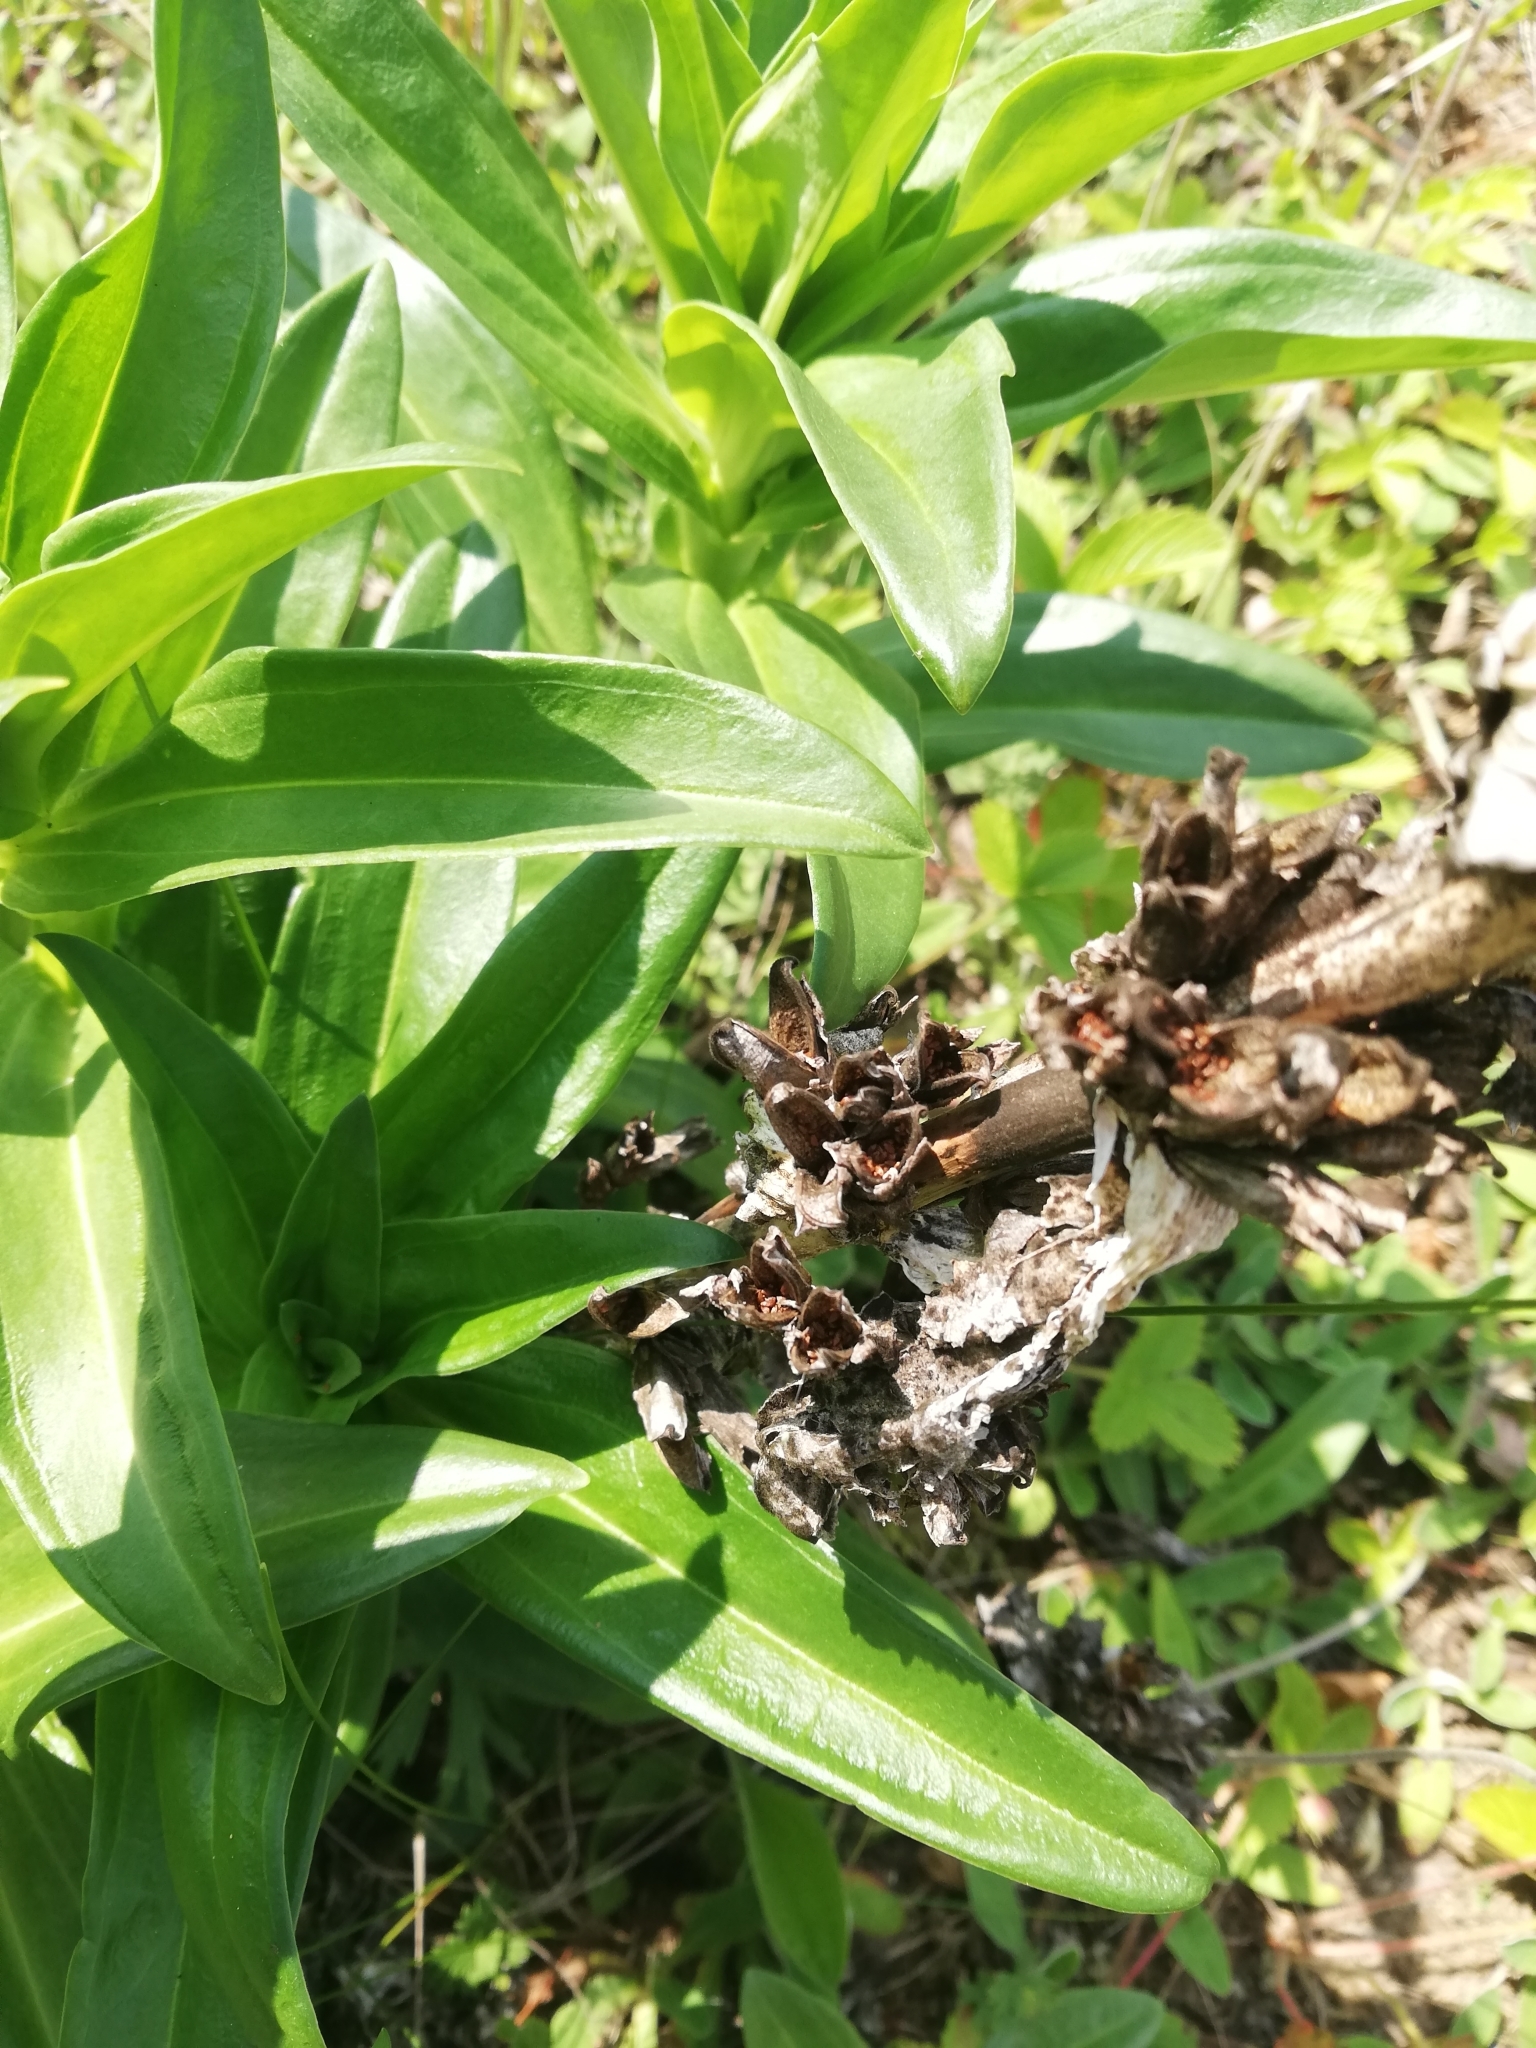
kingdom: Plantae
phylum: Tracheophyta
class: Magnoliopsida
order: Gentianales
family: Gentianaceae
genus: Gentiana
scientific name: Gentiana cruciata
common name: Cross gentian
